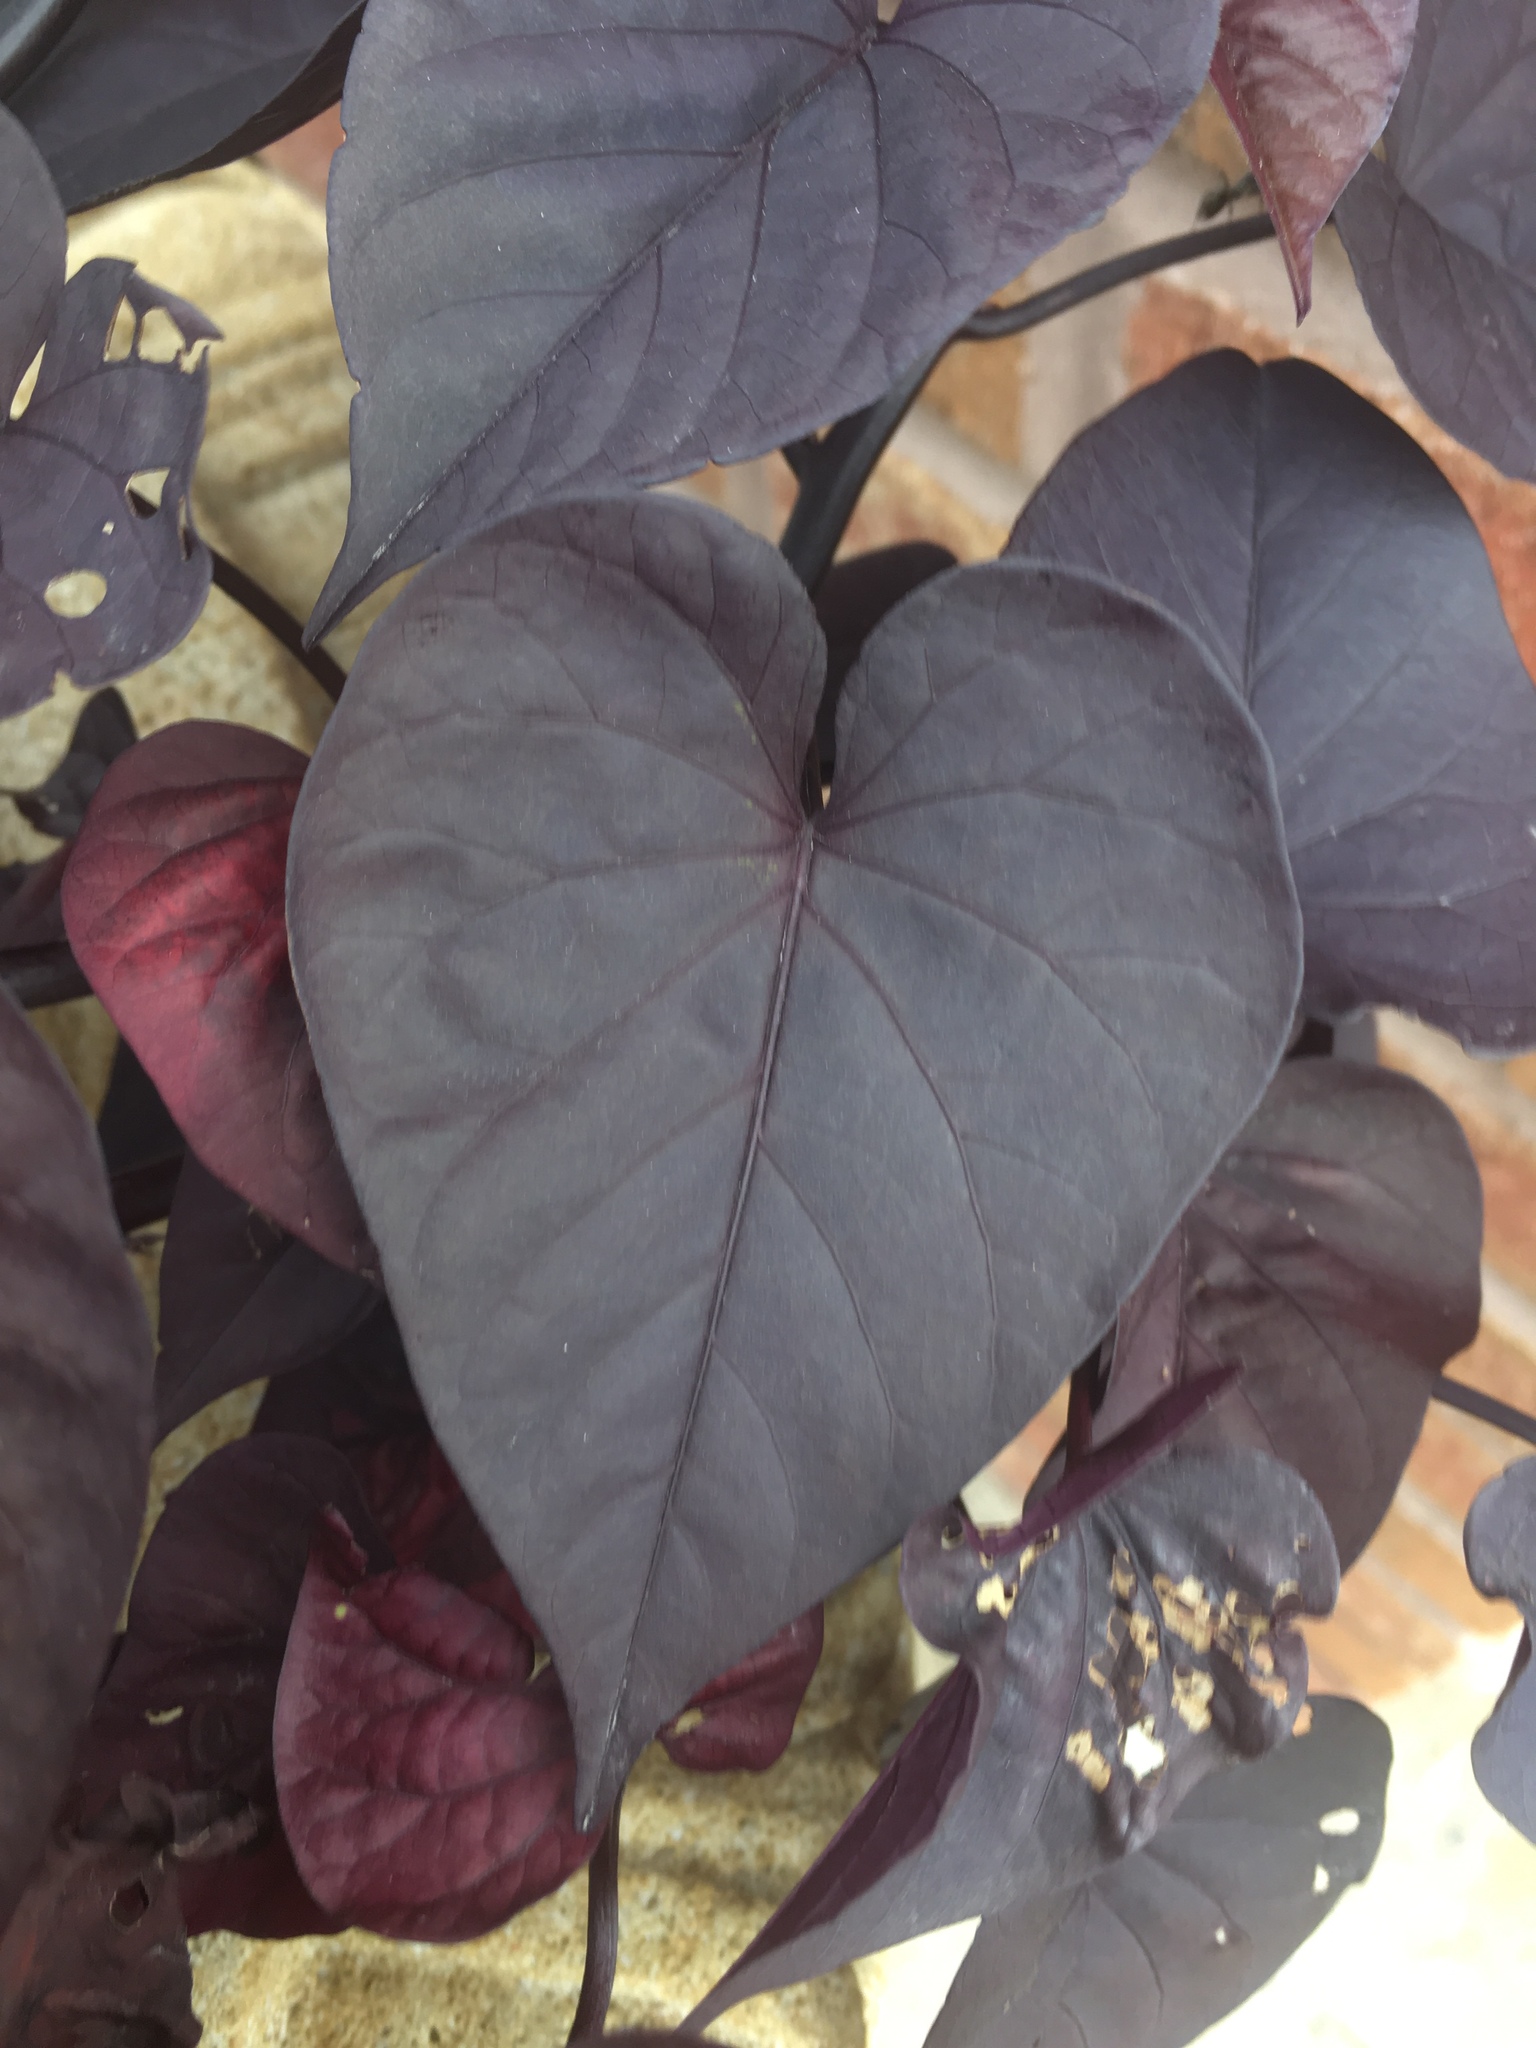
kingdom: Plantae
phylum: Tracheophyta
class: Magnoliopsida
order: Solanales
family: Convolvulaceae
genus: Ipomoea
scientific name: Ipomoea batatas
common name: Sweet-potato
